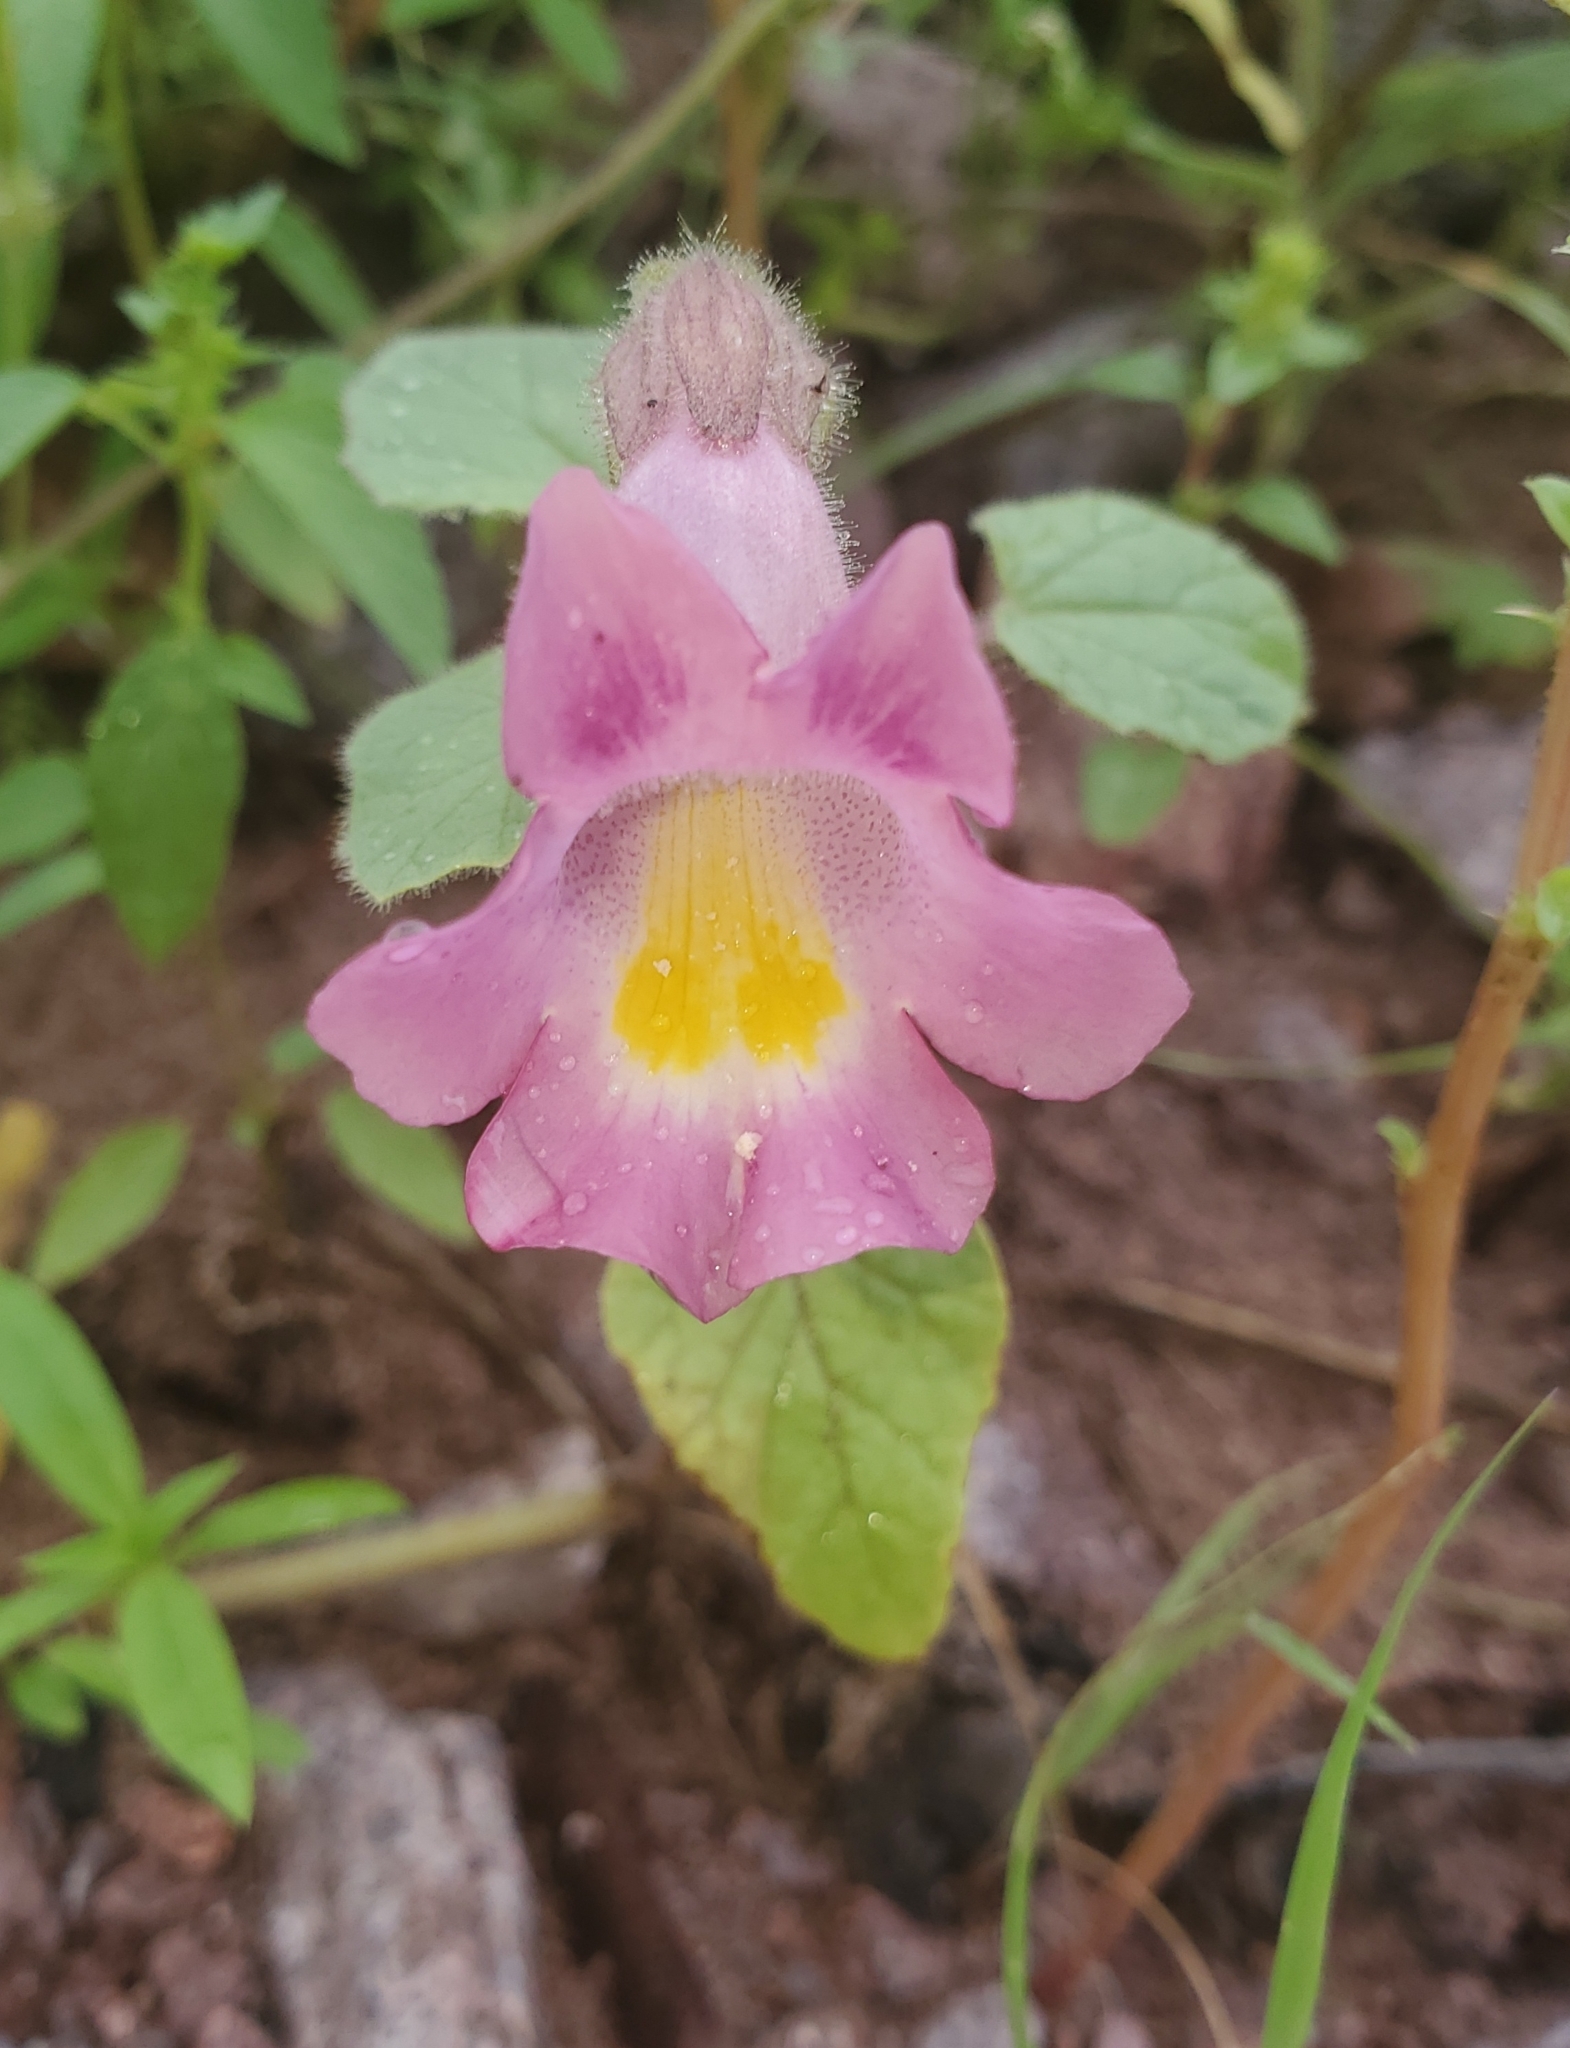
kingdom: Plantae
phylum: Tracheophyta
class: Magnoliopsida
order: Lamiales
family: Martyniaceae
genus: Proboscidea
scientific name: Proboscidea parviflora
